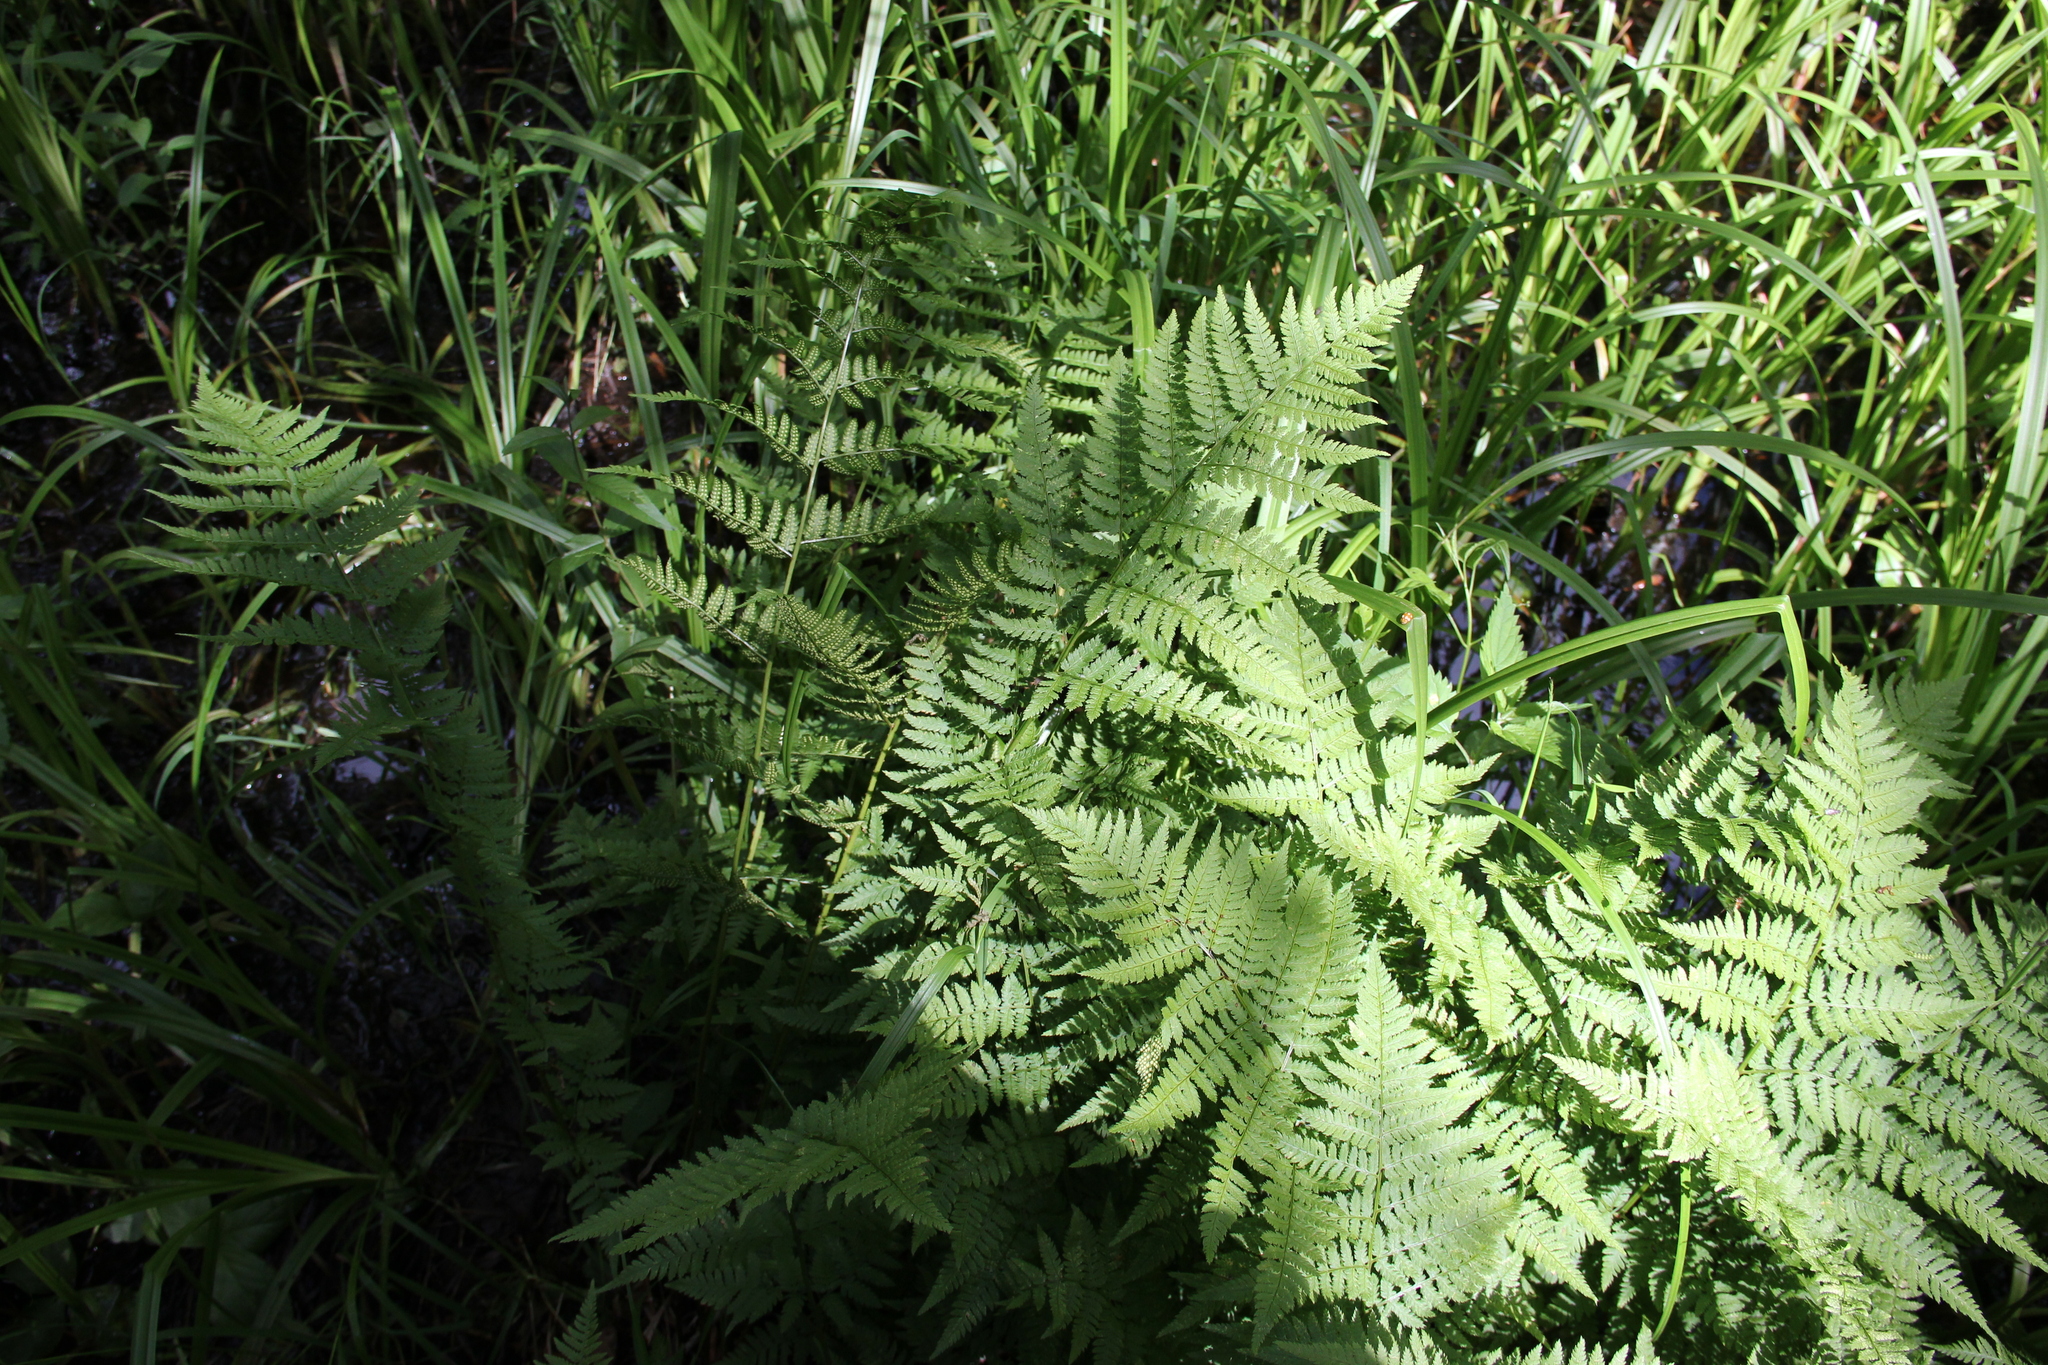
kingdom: Plantae
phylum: Tracheophyta
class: Polypodiopsida
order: Polypodiales
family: Dryopteridaceae
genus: Dryopteris
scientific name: Dryopteris carthusiana
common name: Narrow buckler-fern
